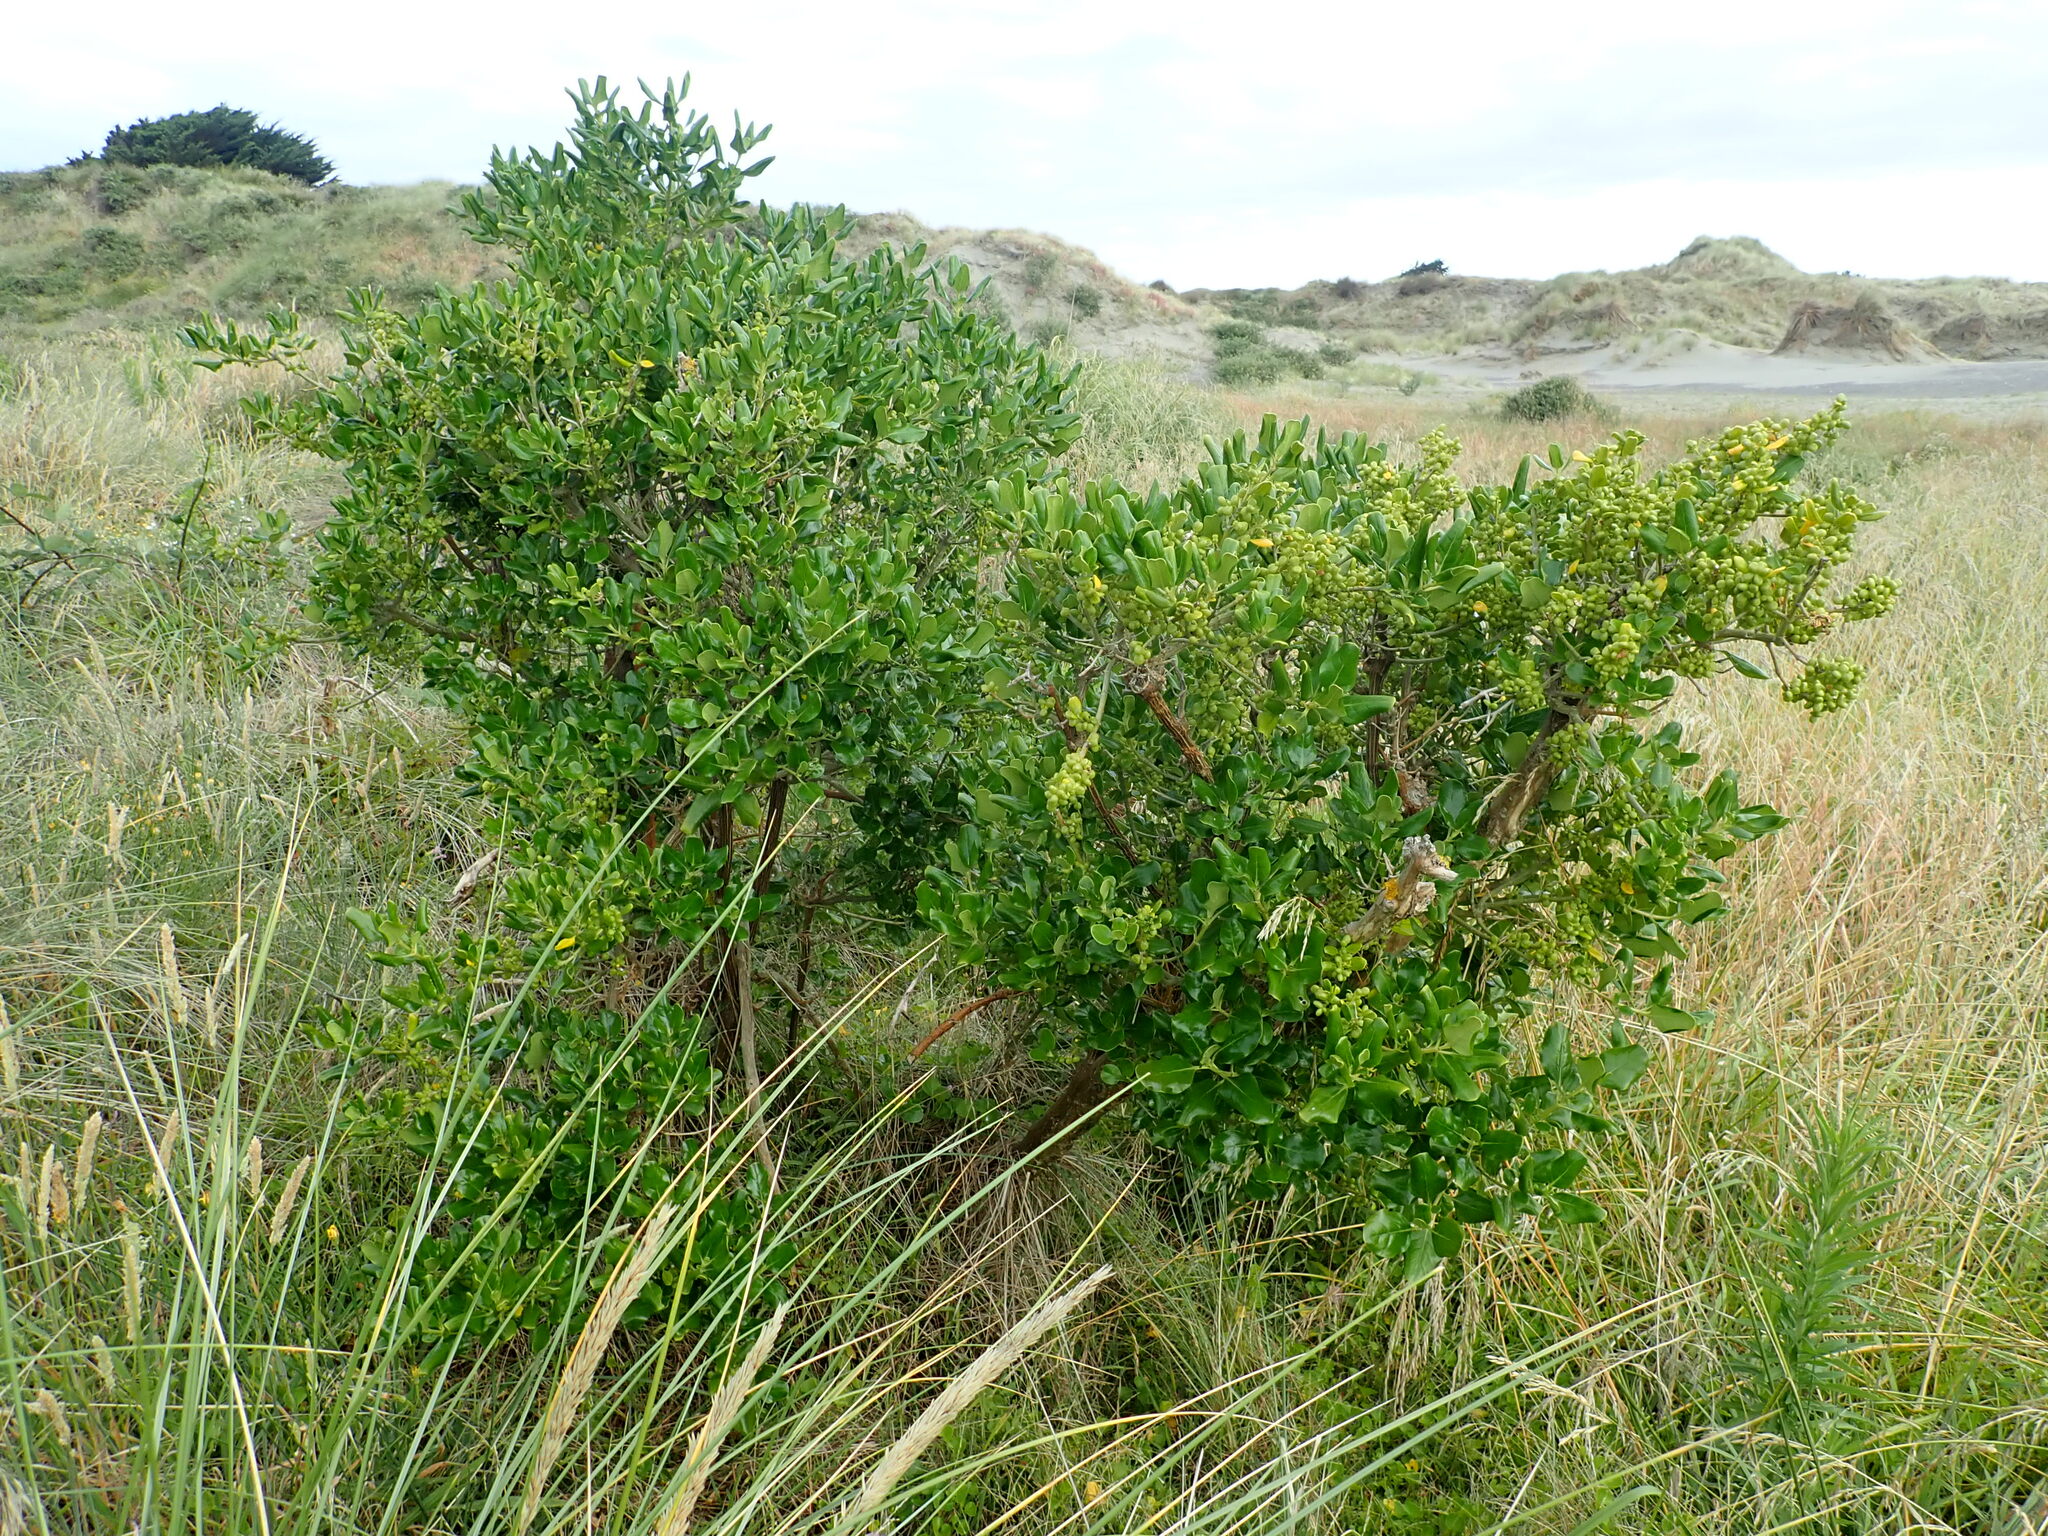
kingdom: Plantae
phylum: Tracheophyta
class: Magnoliopsida
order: Gentianales
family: Rubiaceae
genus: Coprosma
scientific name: Coprosma repens
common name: Tree bedstraw
